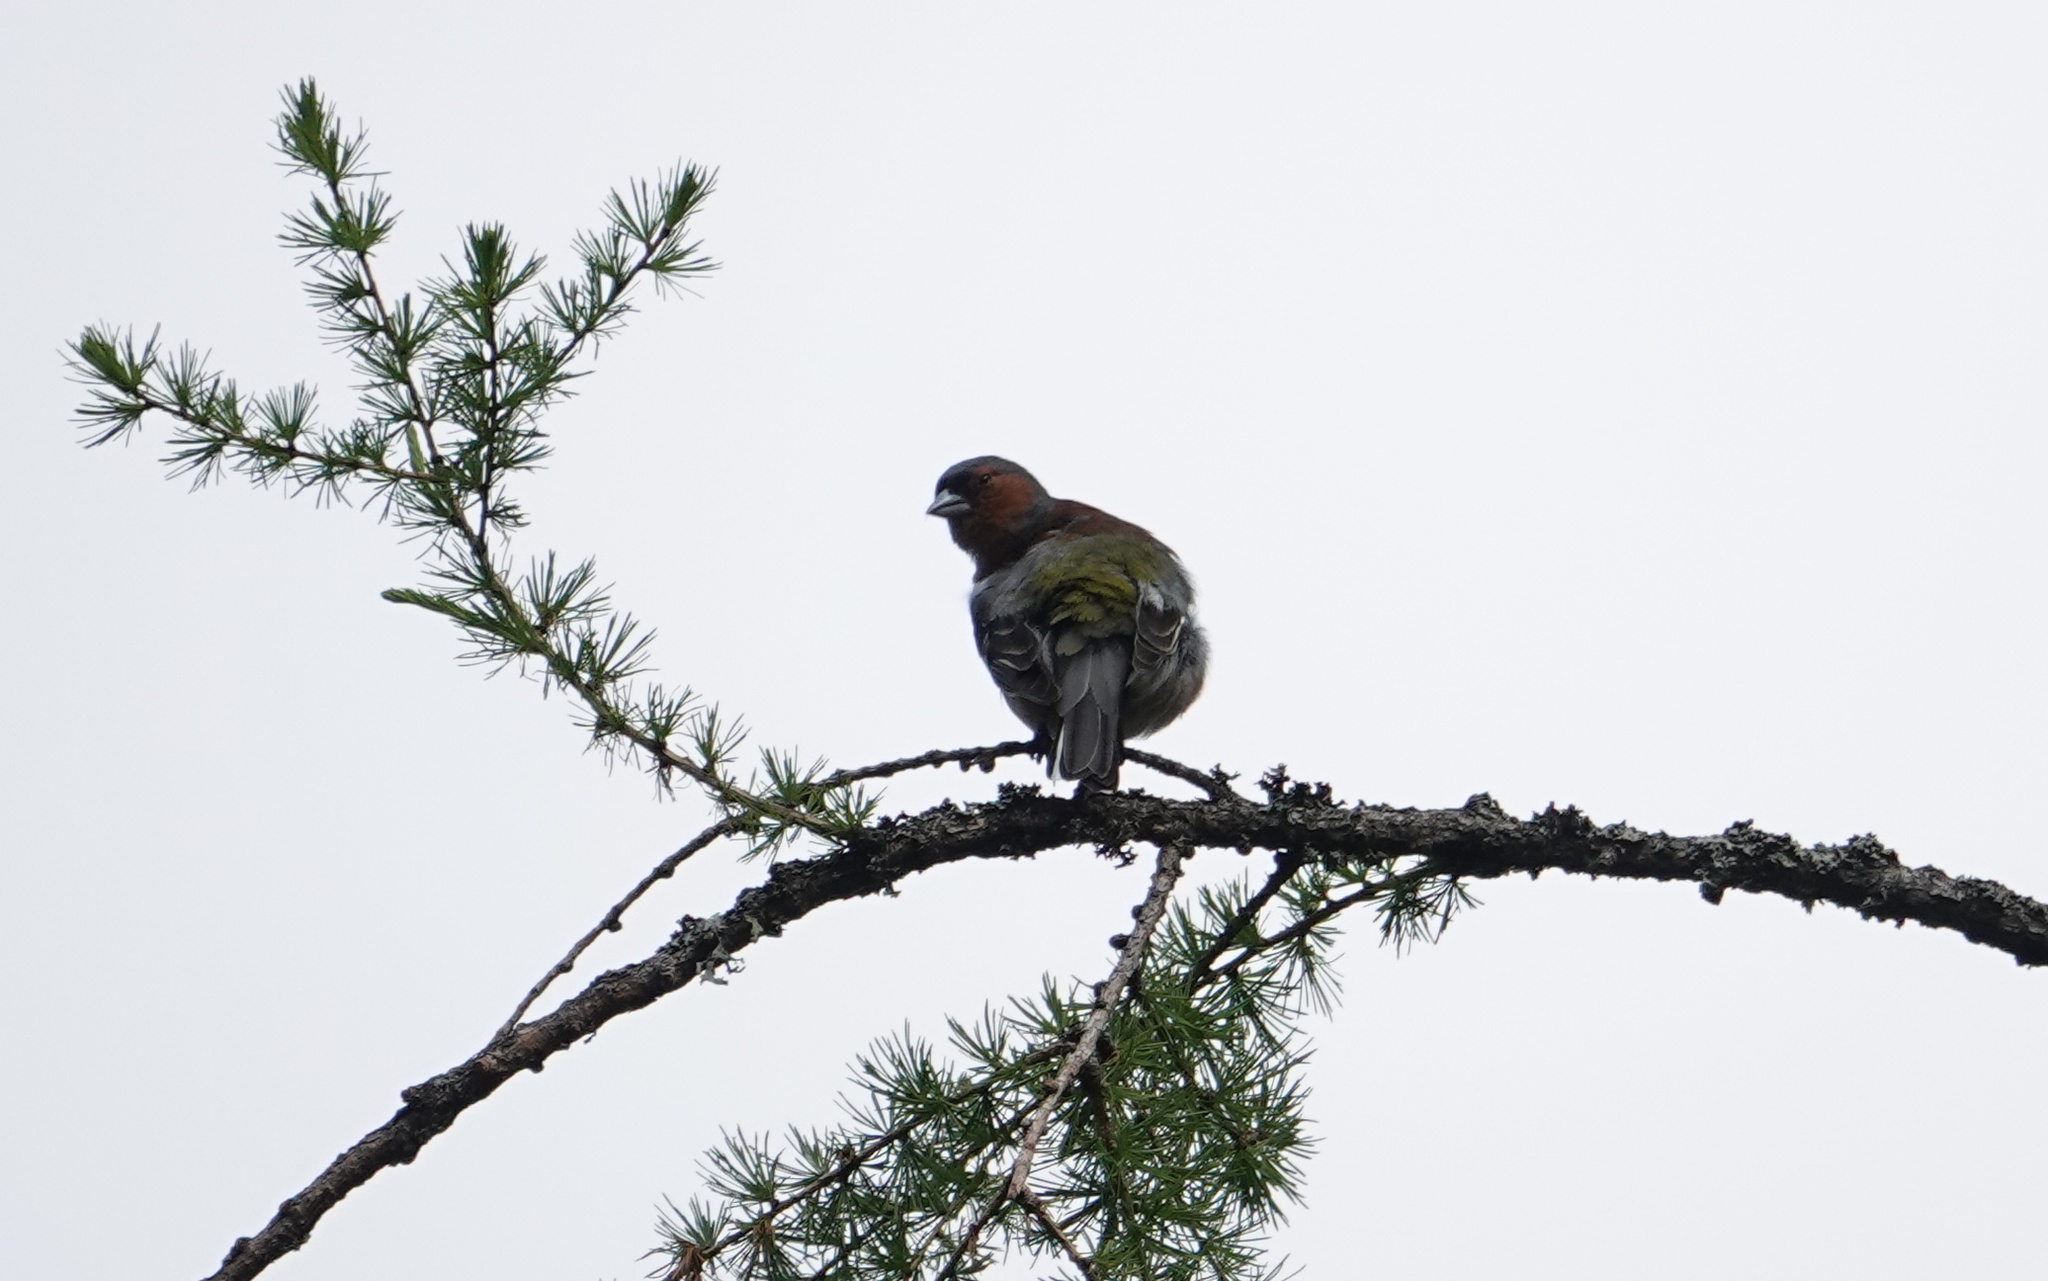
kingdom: Animalia
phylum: Chordata
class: Aves
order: Passeriformes
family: Fringillidae
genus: Fringilla
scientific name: Fringilla coelebs
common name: Common chaffinch
